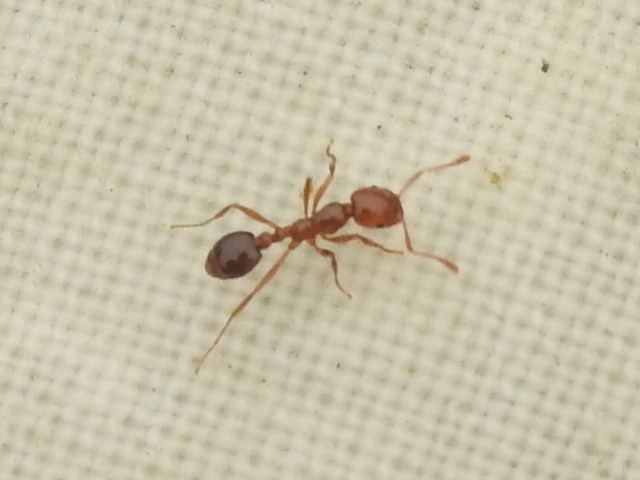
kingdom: Animalia
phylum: Arthropoda
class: Insecta
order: Hymenoptera
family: Formicidae
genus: Solenopsis
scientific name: Solenopsis invicta
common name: Red imported fire ant
